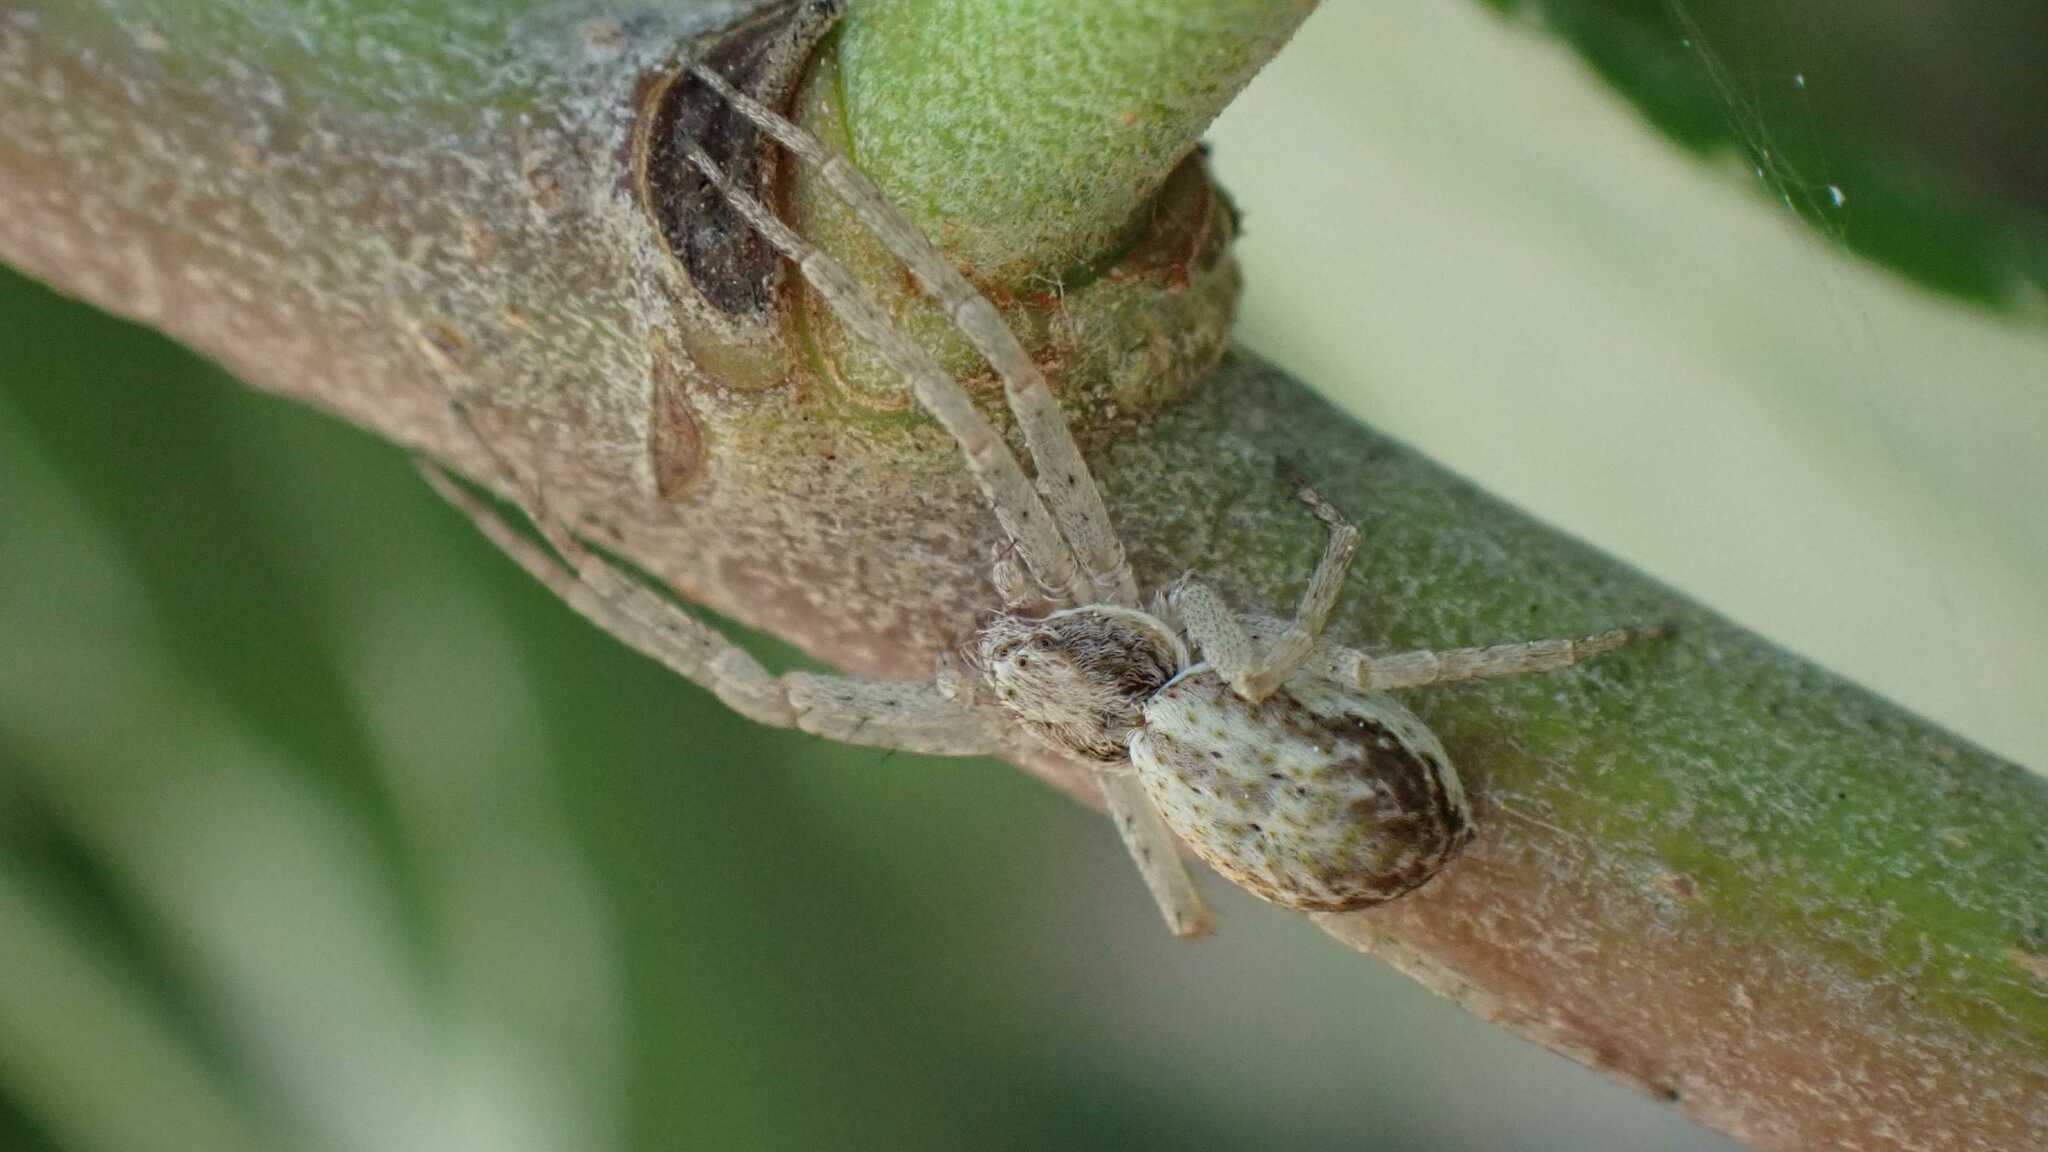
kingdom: Animalia
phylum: Arthropoda
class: Arachnida
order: Araneae
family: Philodromidae
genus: Philodromus
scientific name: Philodromus dispar
